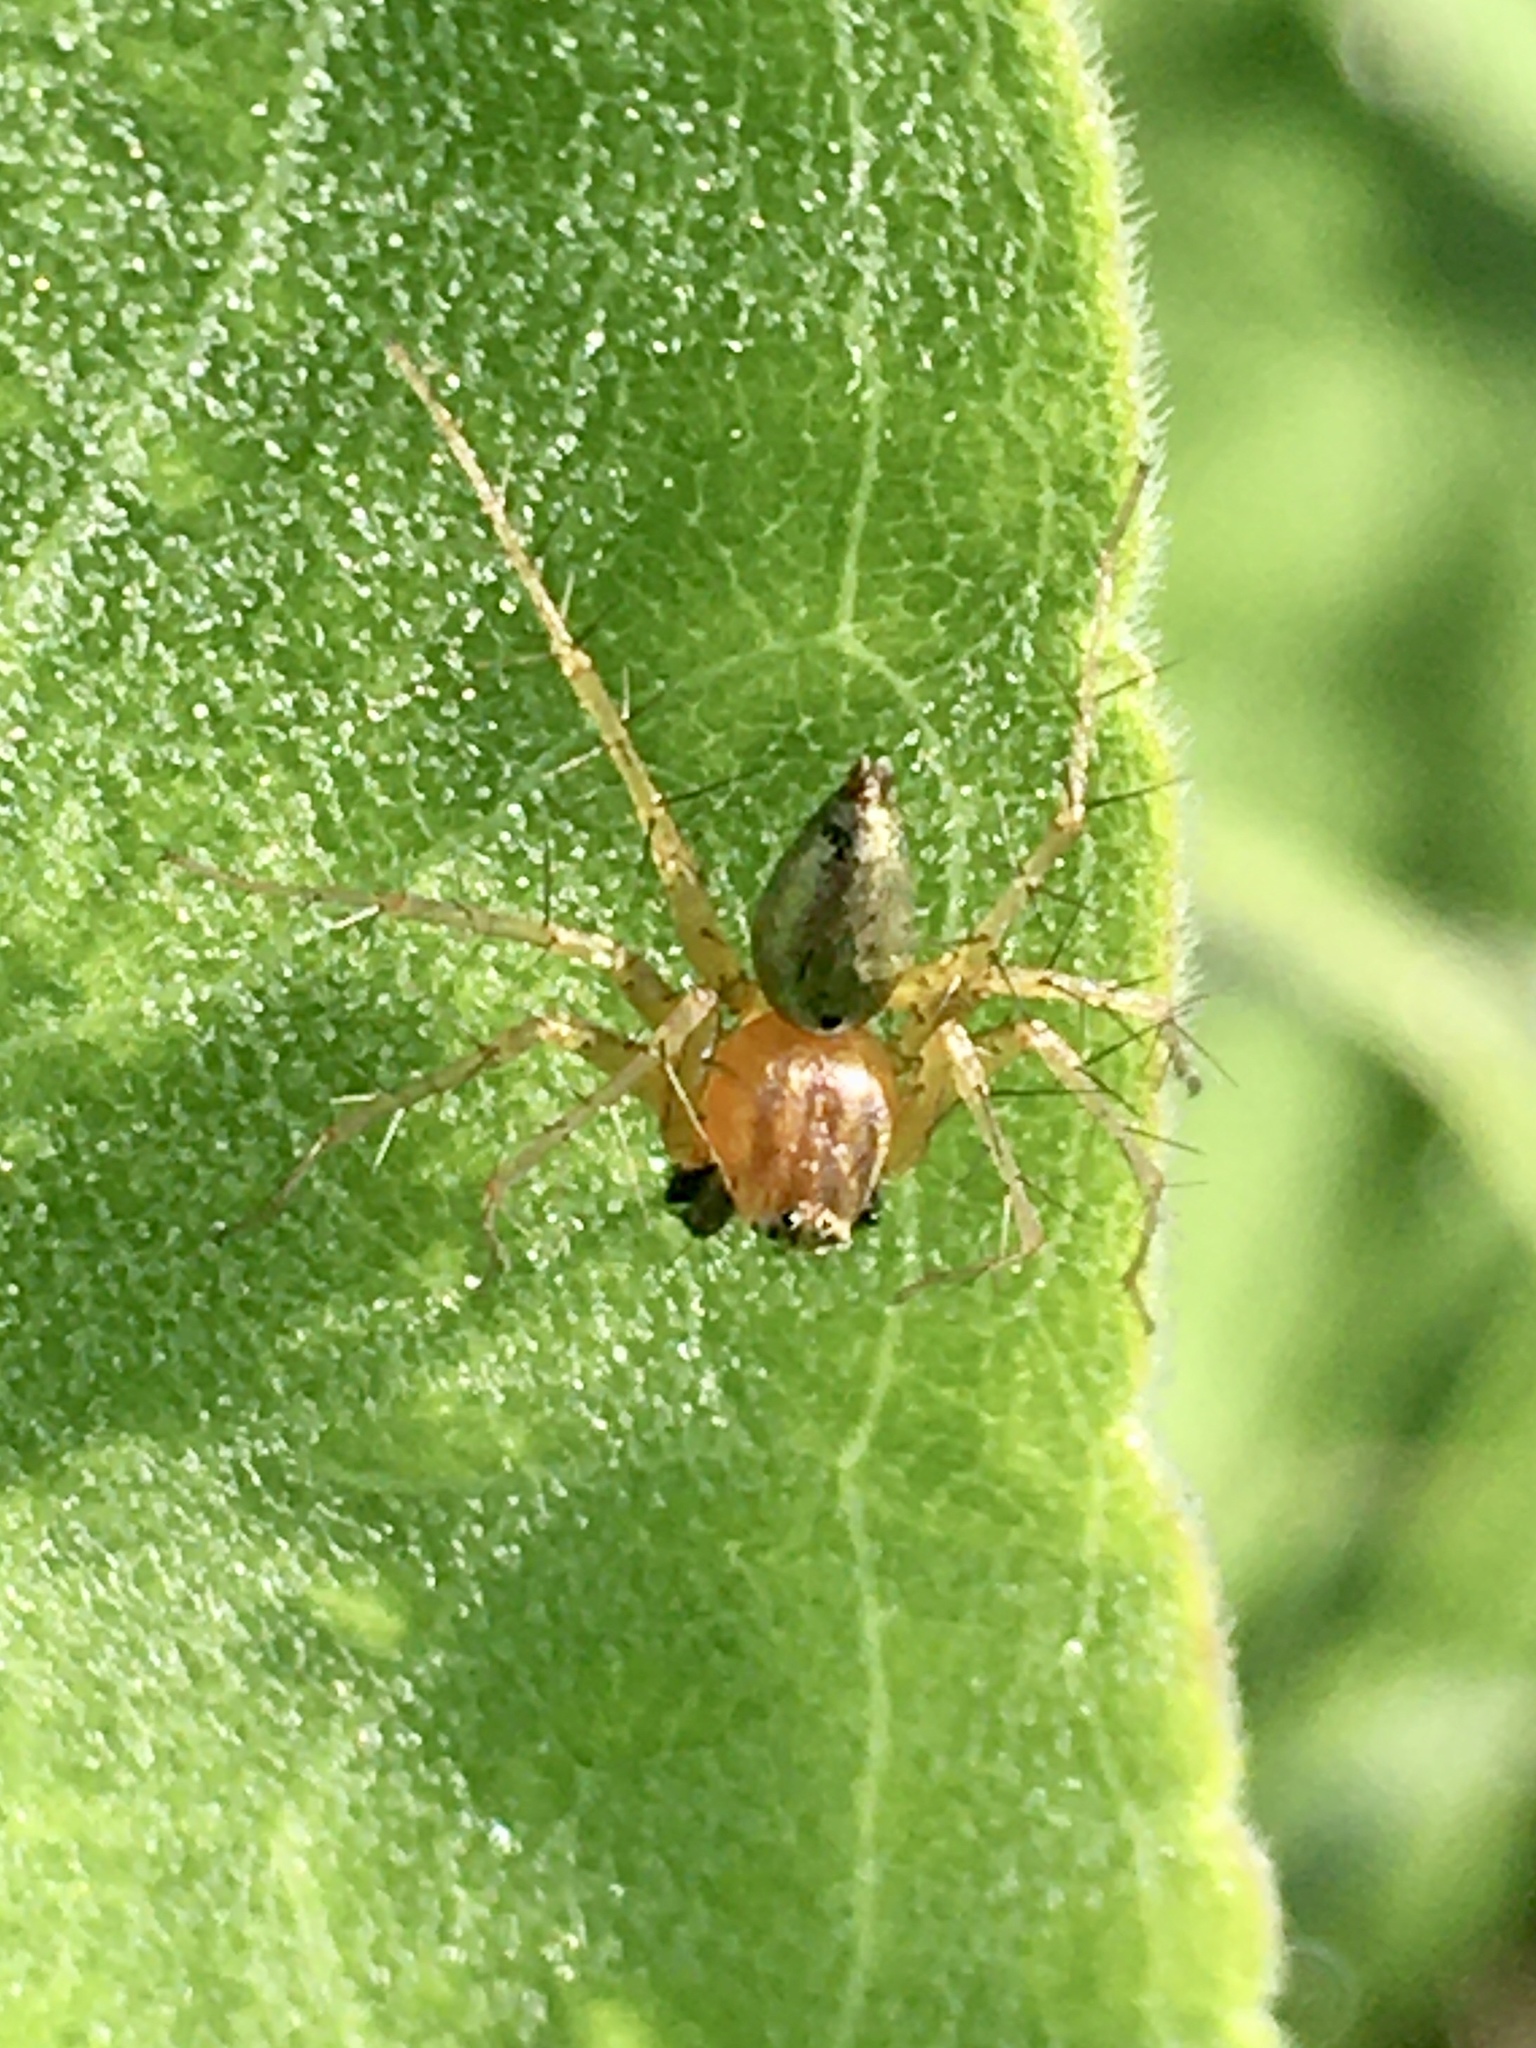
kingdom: Animalia
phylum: Arthropoda
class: Arachnida
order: Araneae
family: Oxyopidae
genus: Oxyopes
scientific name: Oxyopes salticus
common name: Lynx spiders
